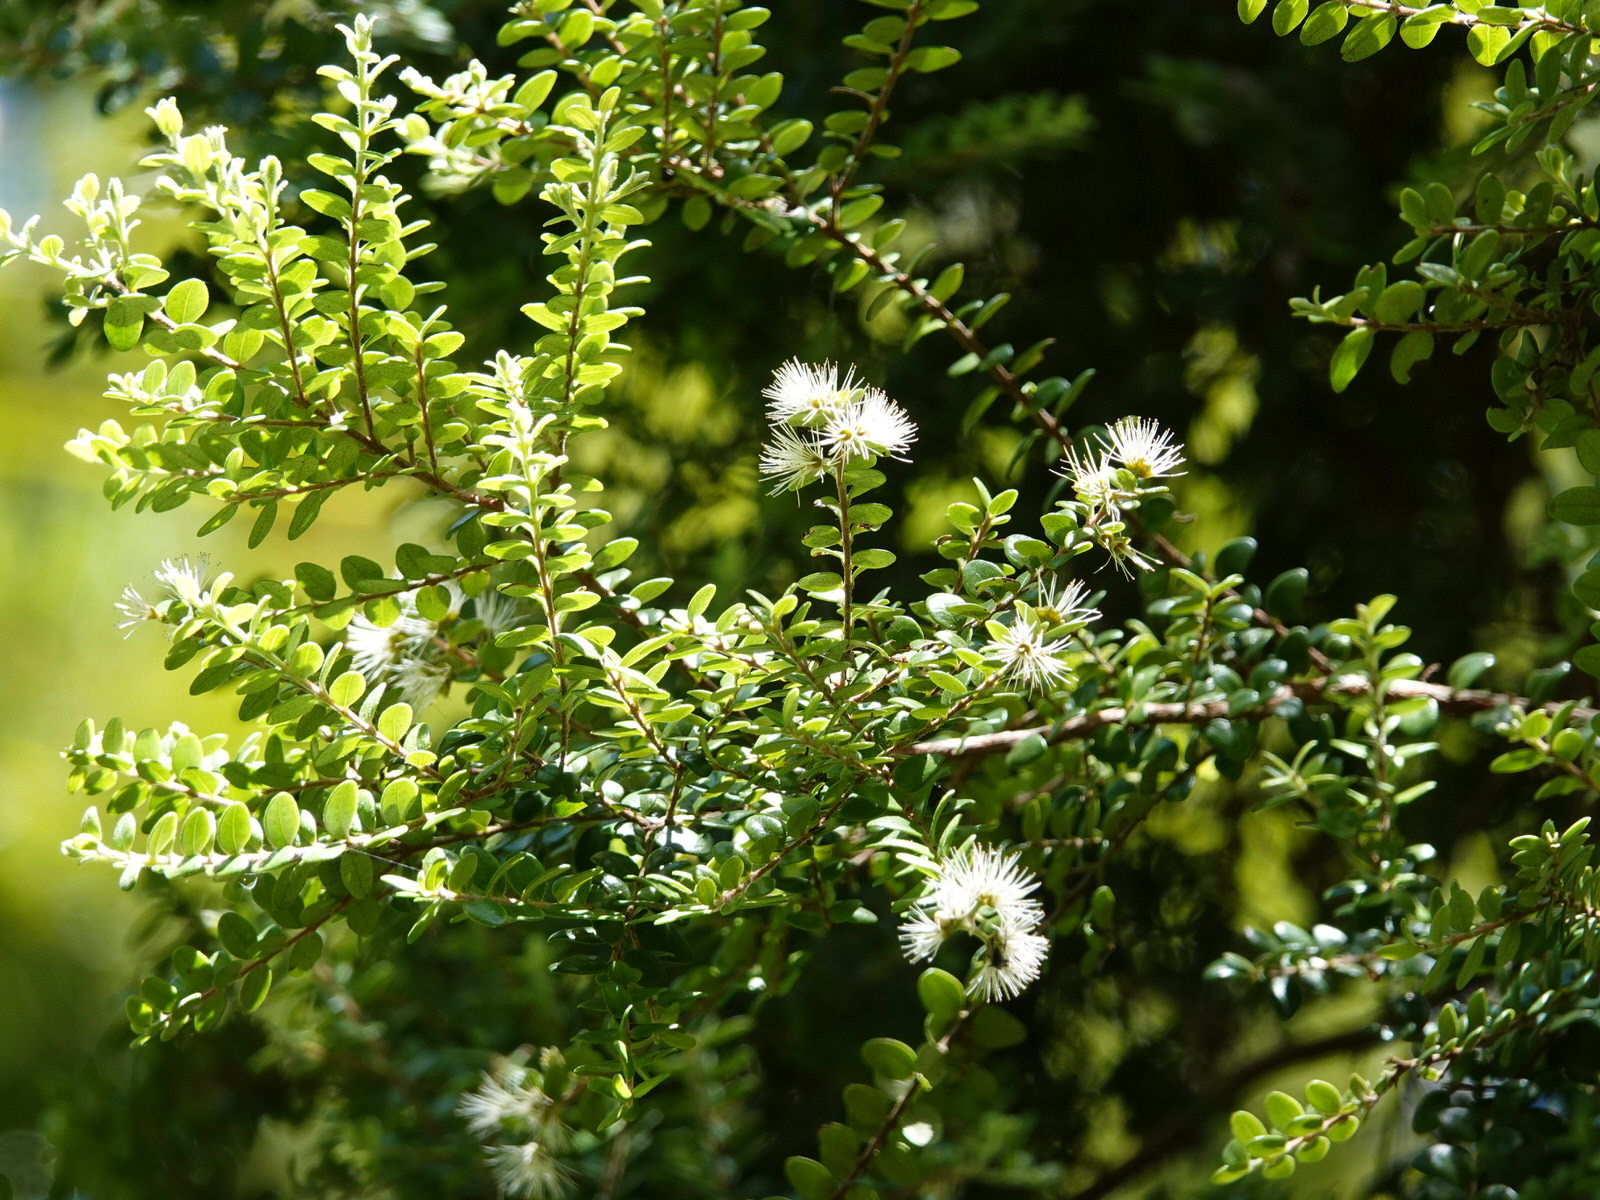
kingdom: Plantae
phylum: Tracheophyta
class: Magnoliopsida
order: Myrtales
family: Myrtaceae
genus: Metrosideros
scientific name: Metrosideros perforata
